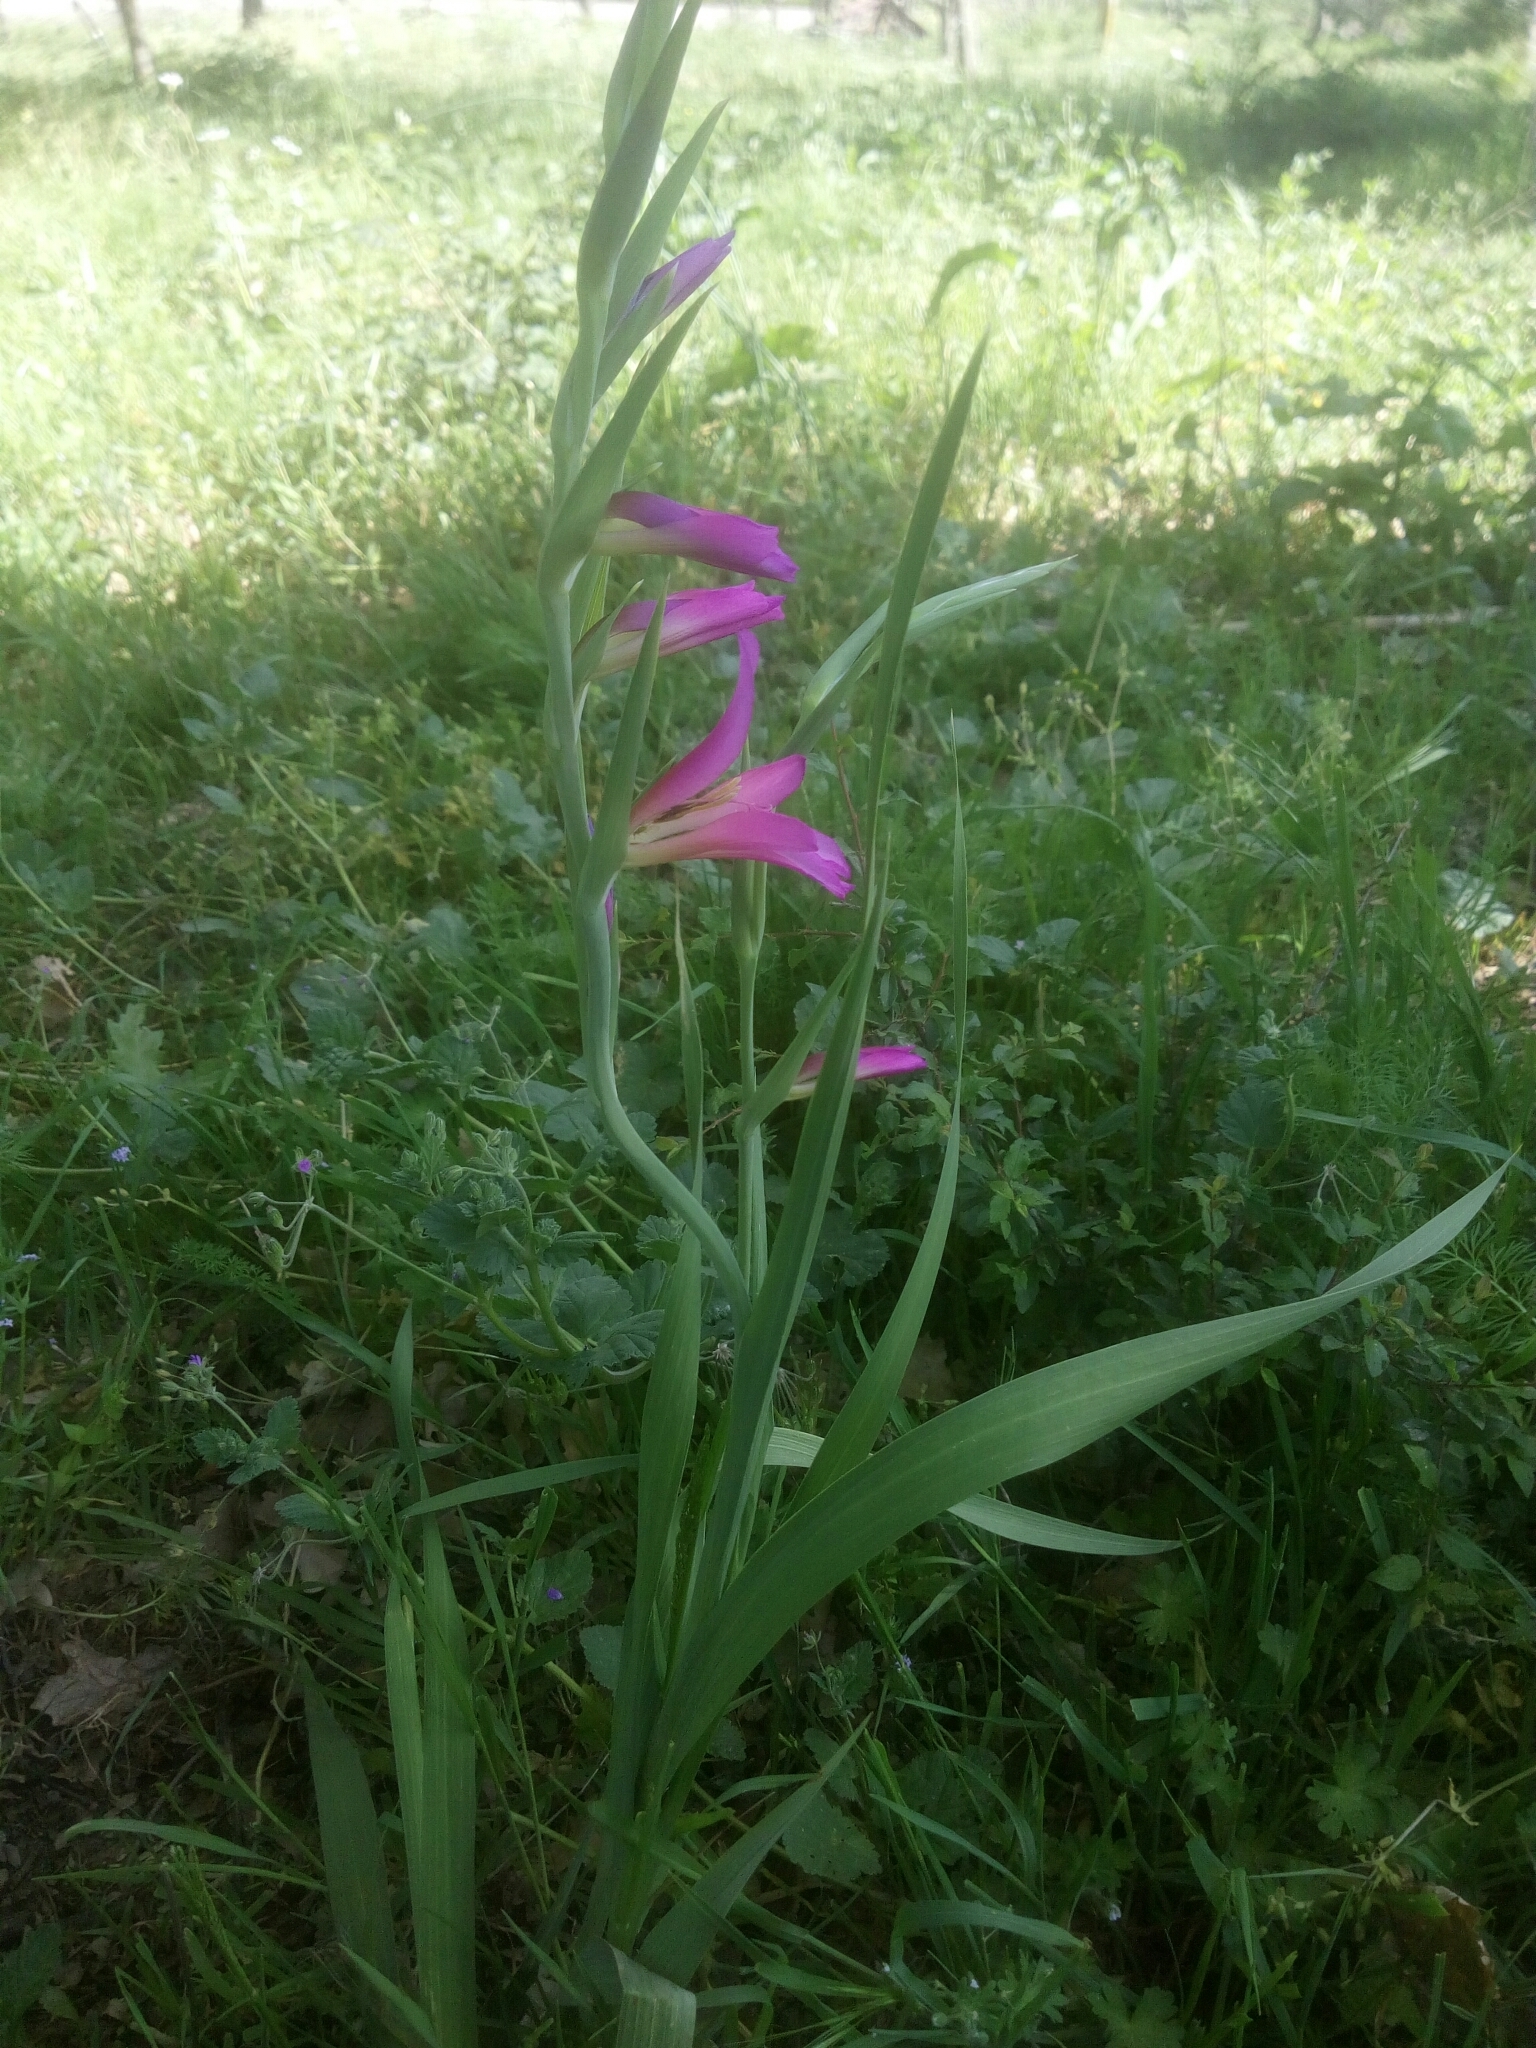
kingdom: Plantae
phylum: Tracheophyta
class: Liliopsida
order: Asparagales
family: Iridaceae
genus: Gladiolus
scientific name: Gladiolus italicus
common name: Field gladiolus
